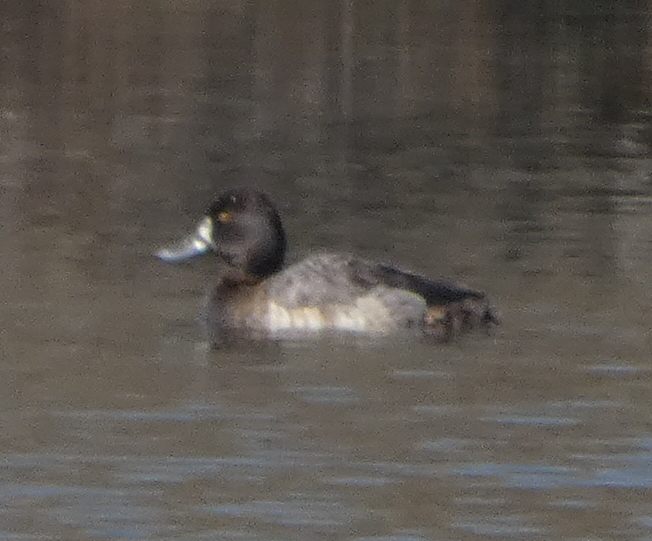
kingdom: Animalia
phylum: Chordata
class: Aves
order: Anseriformes
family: Anatidae
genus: Aythya
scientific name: Aythya marila
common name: Greater scaup
